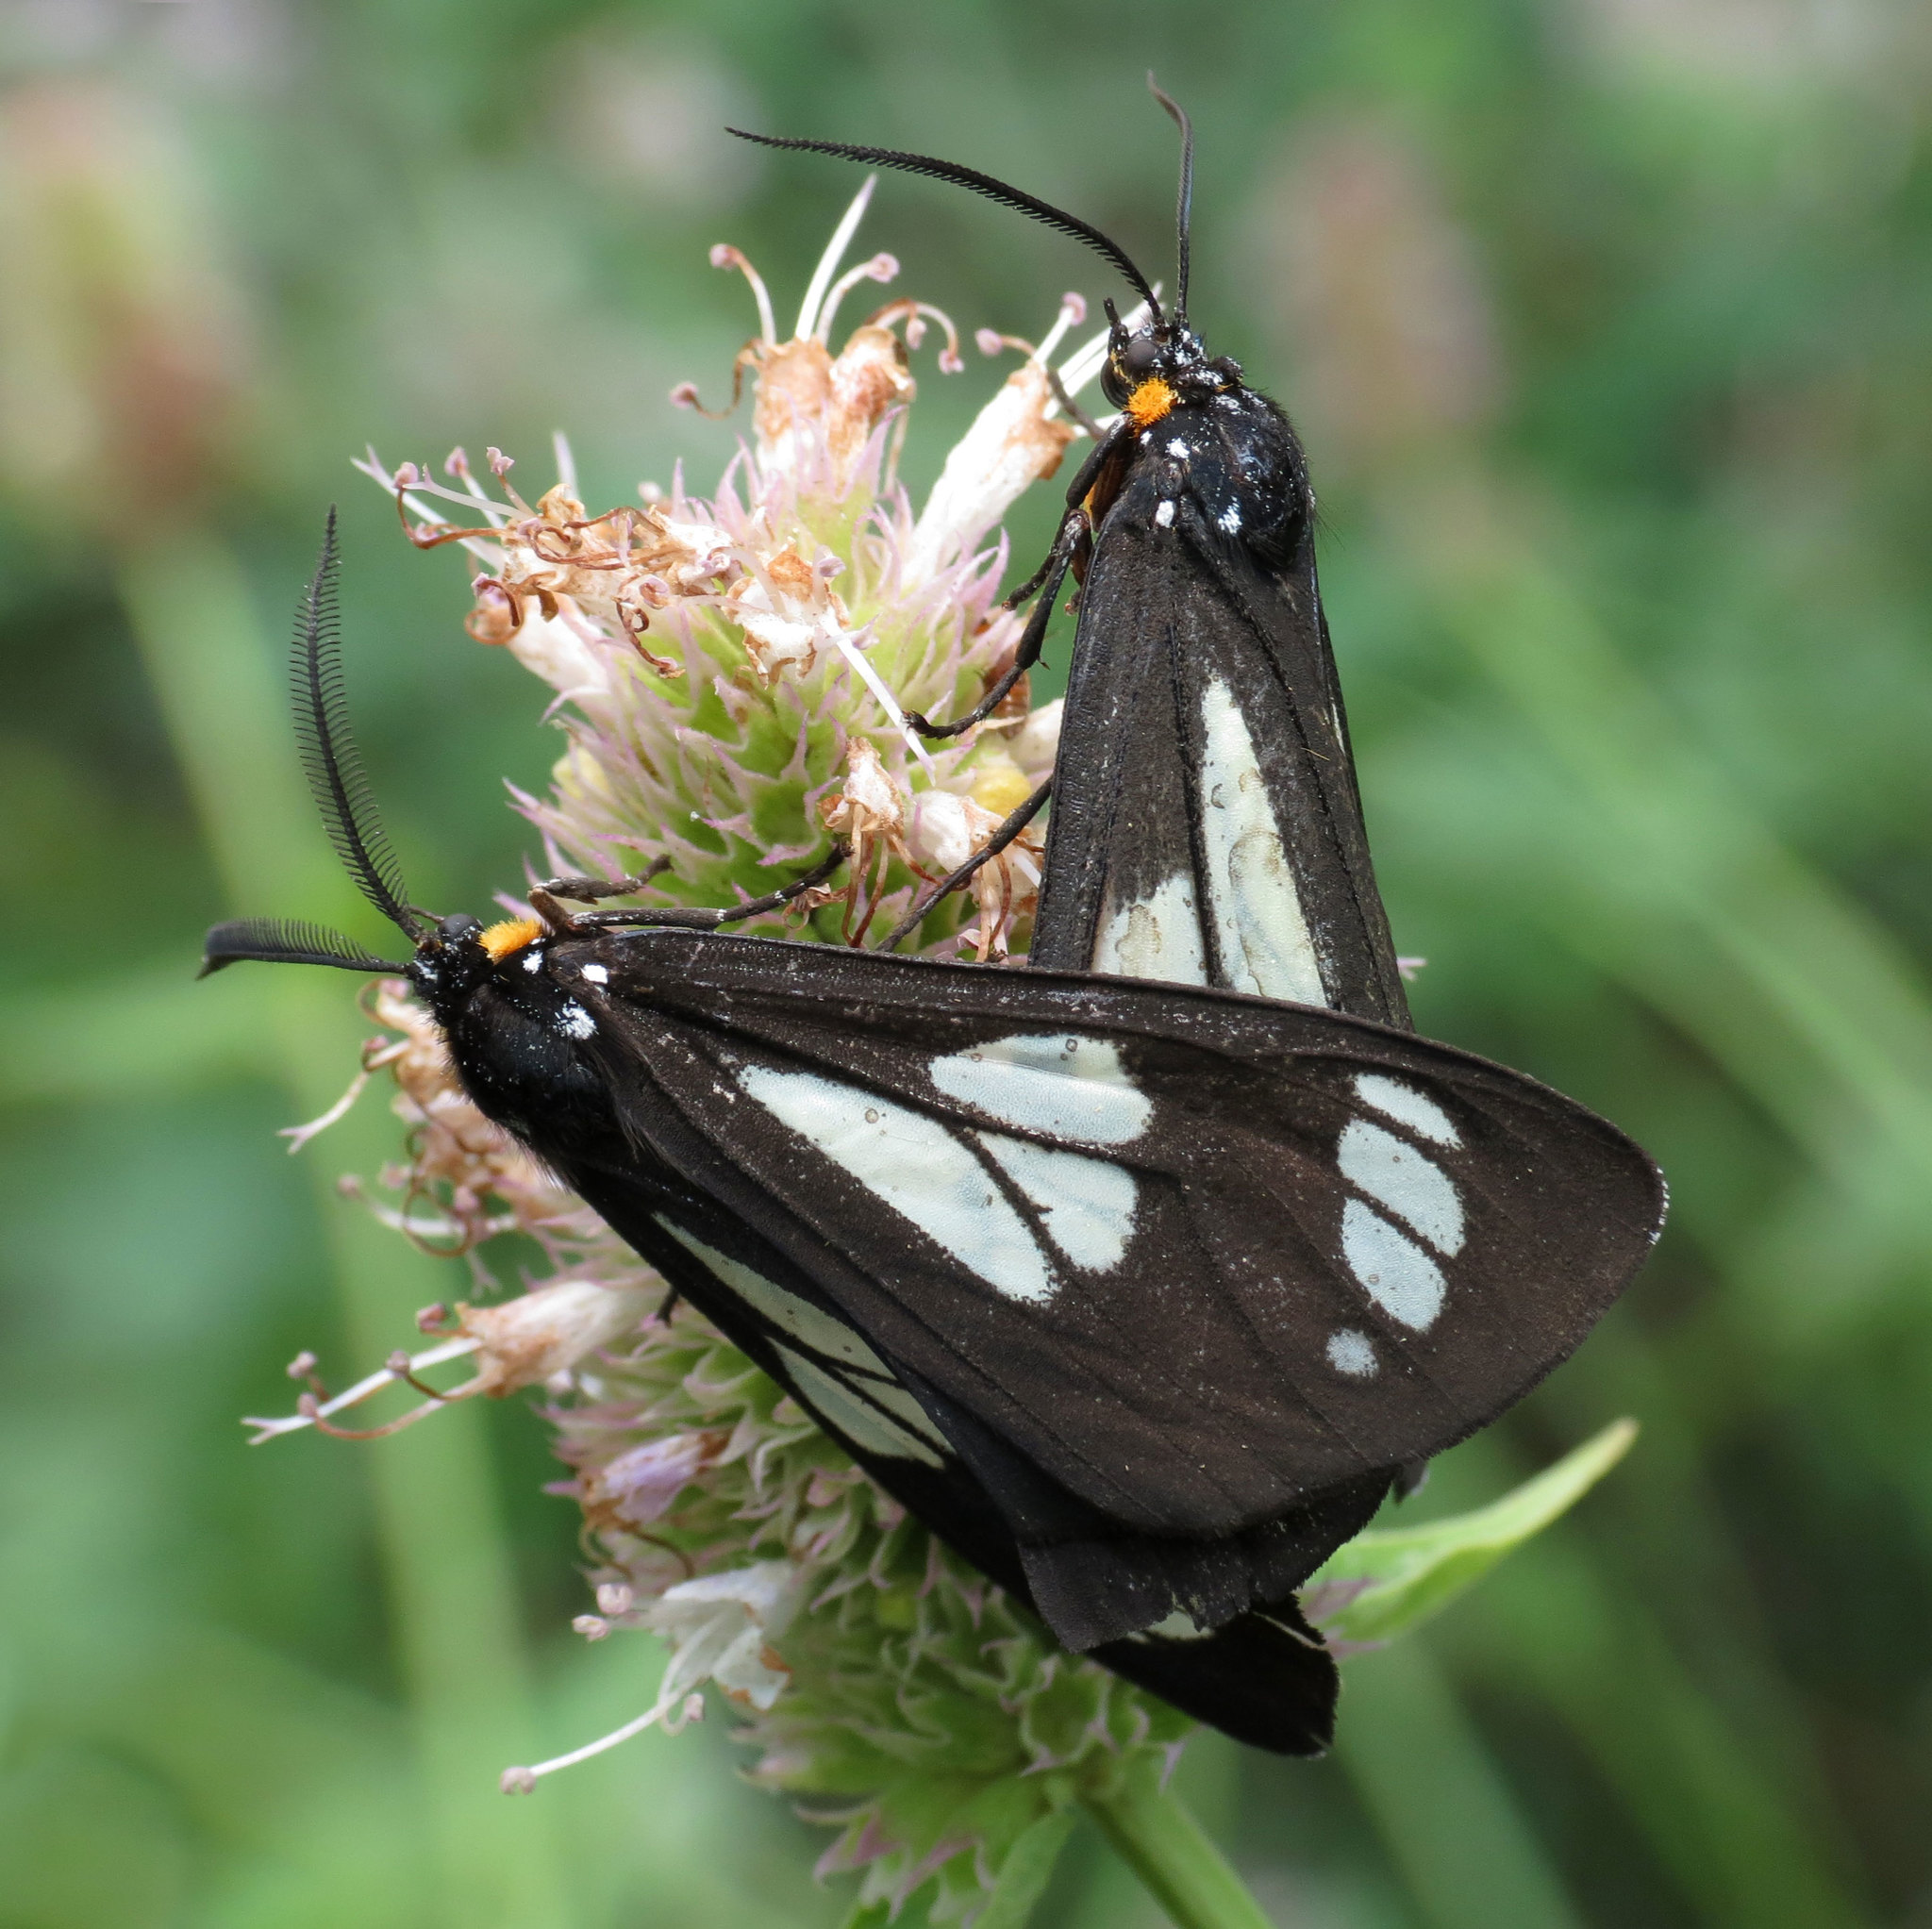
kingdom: Animalia
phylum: Arthropoda
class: Insecta
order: Lepidoptera
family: Erebidae
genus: Gnophaela
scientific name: Gnophaela vermiculata
